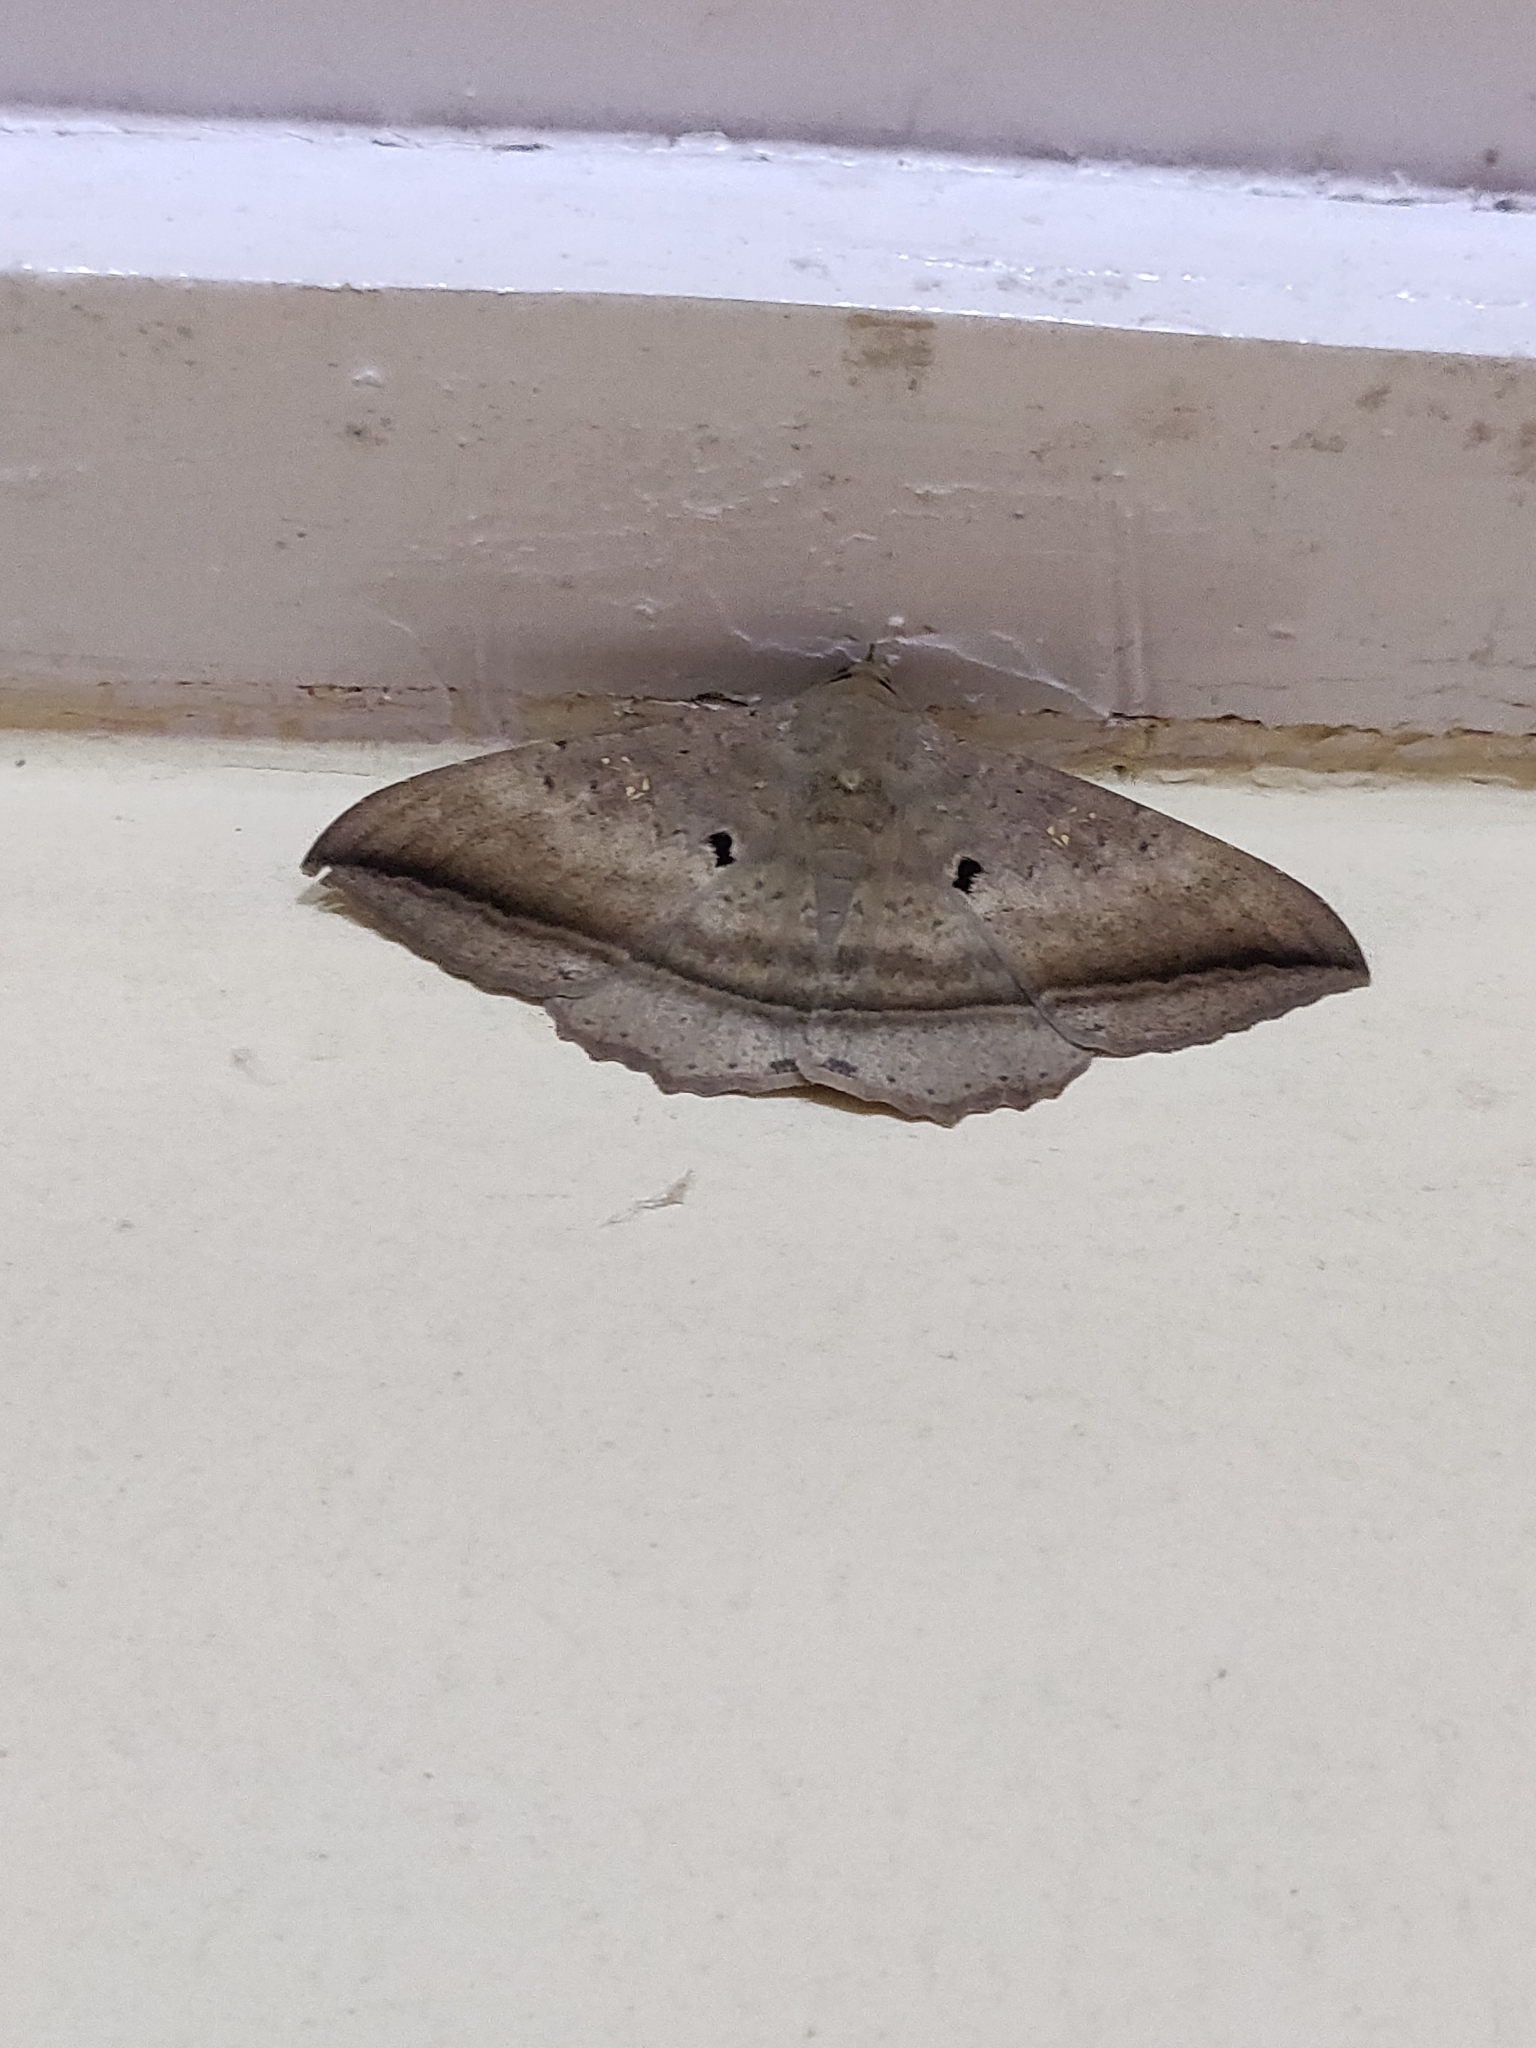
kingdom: Animalia
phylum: Arthropoda
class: Insecta
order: Lepidoptera
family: Erebidae
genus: Hulodes
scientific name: Hulodes caranea
